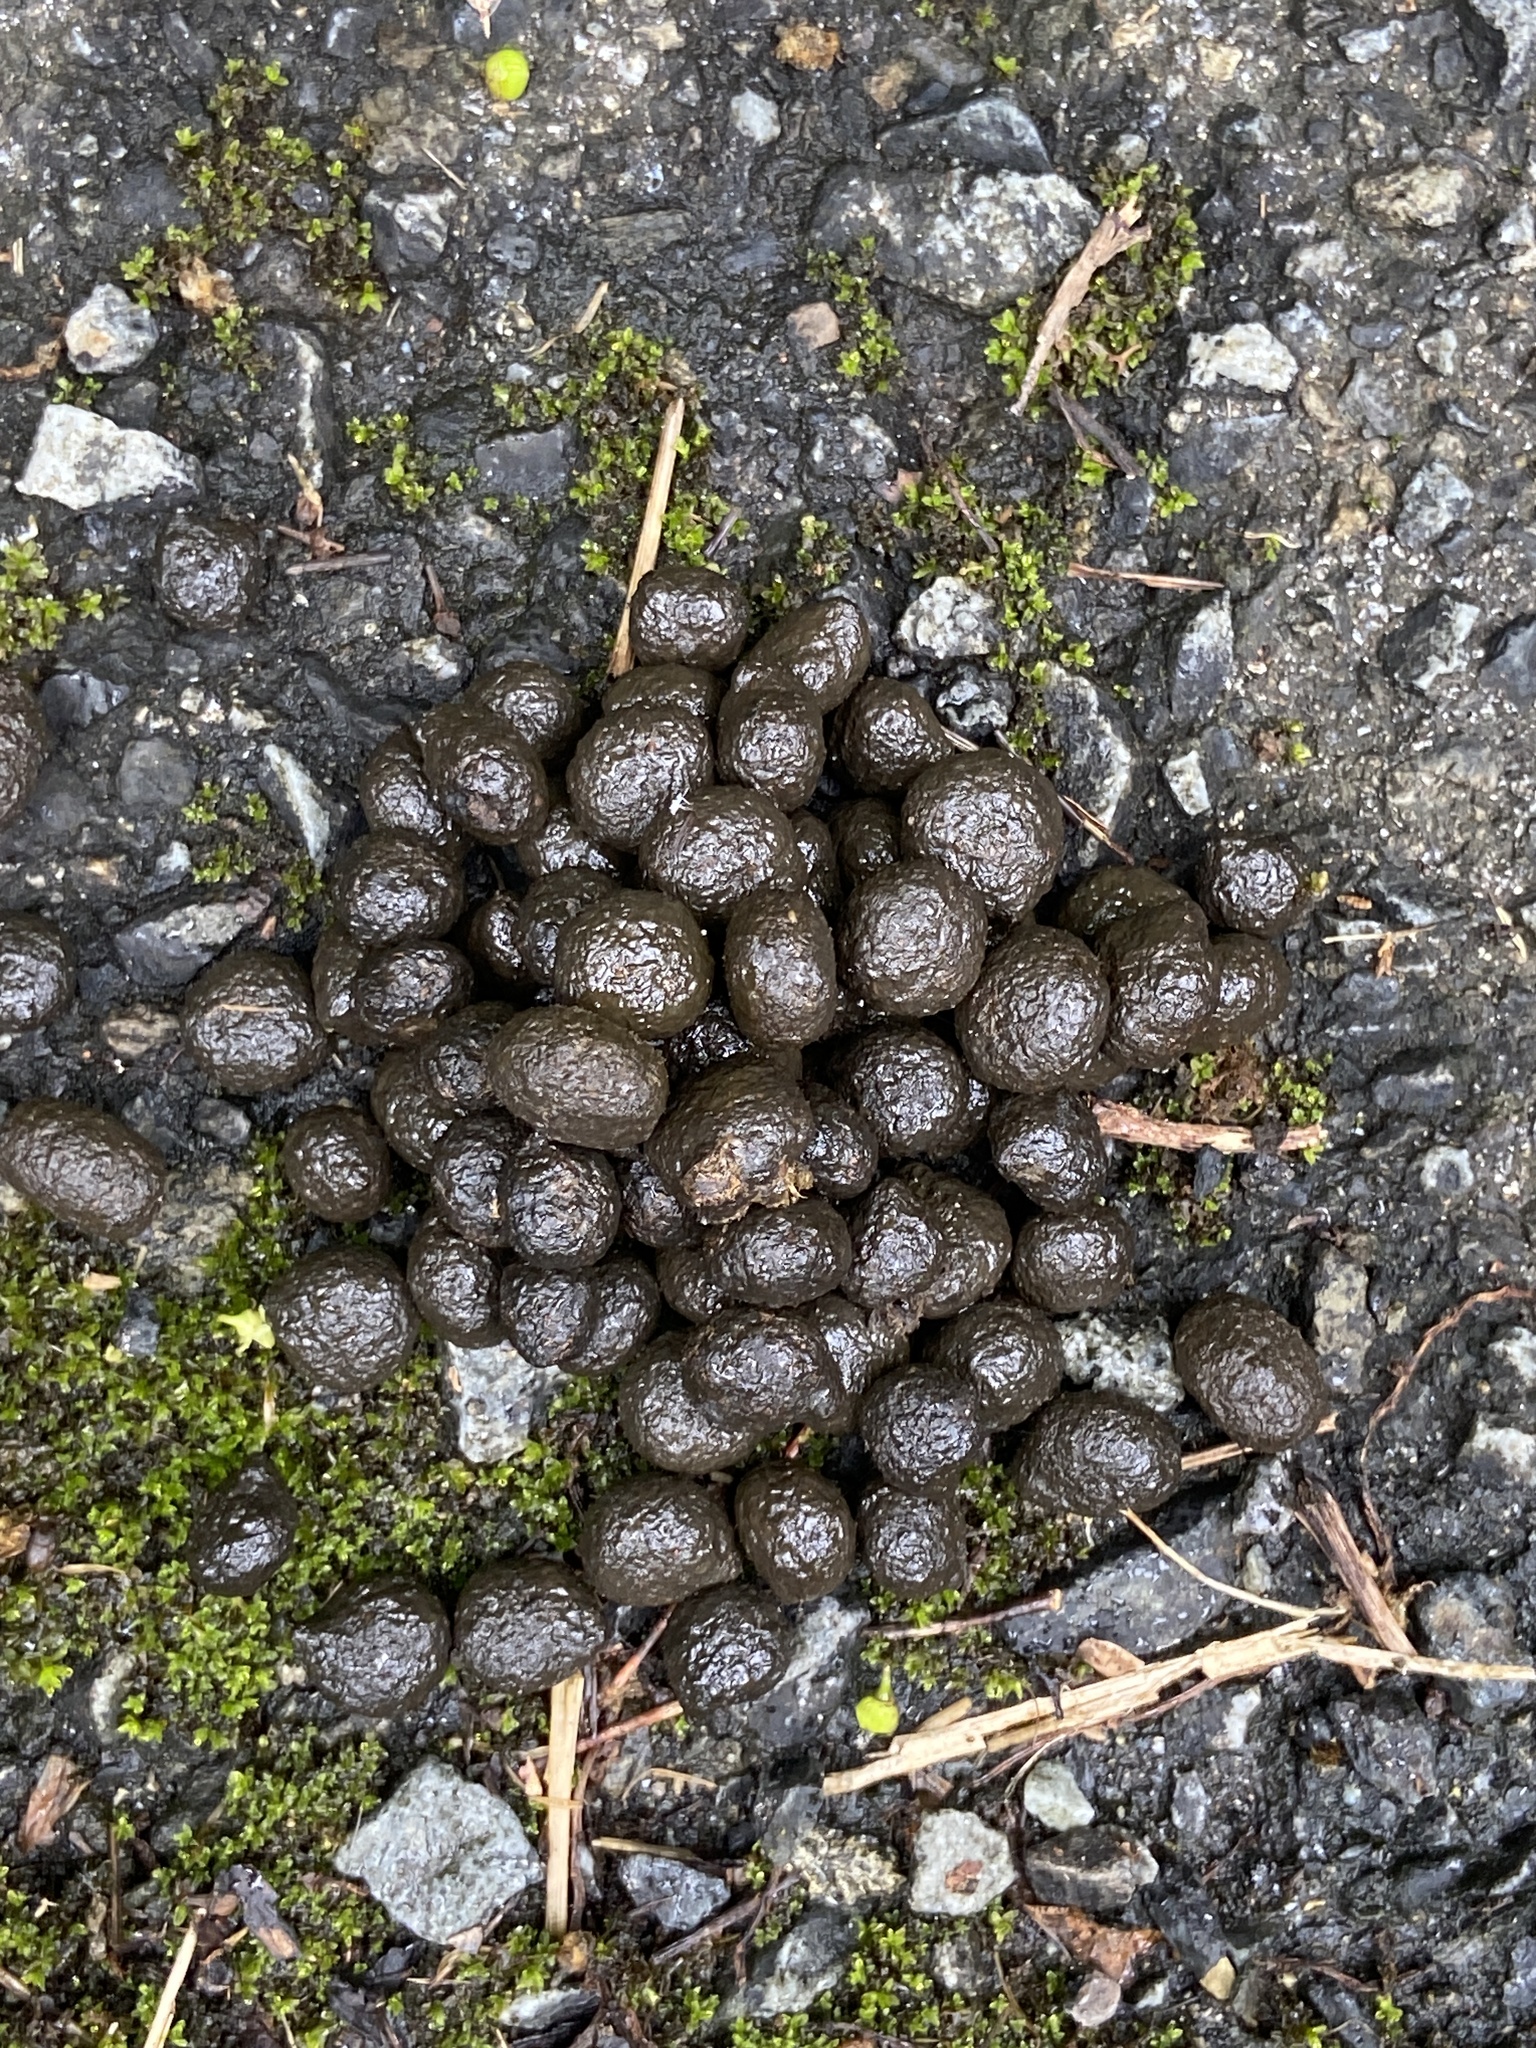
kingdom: Animalia
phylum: Chordata
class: Mammalia
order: Lagomorpha
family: Leporidae
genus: Pentalagus
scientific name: Pentalagus furnessi
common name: Amami rabbit
